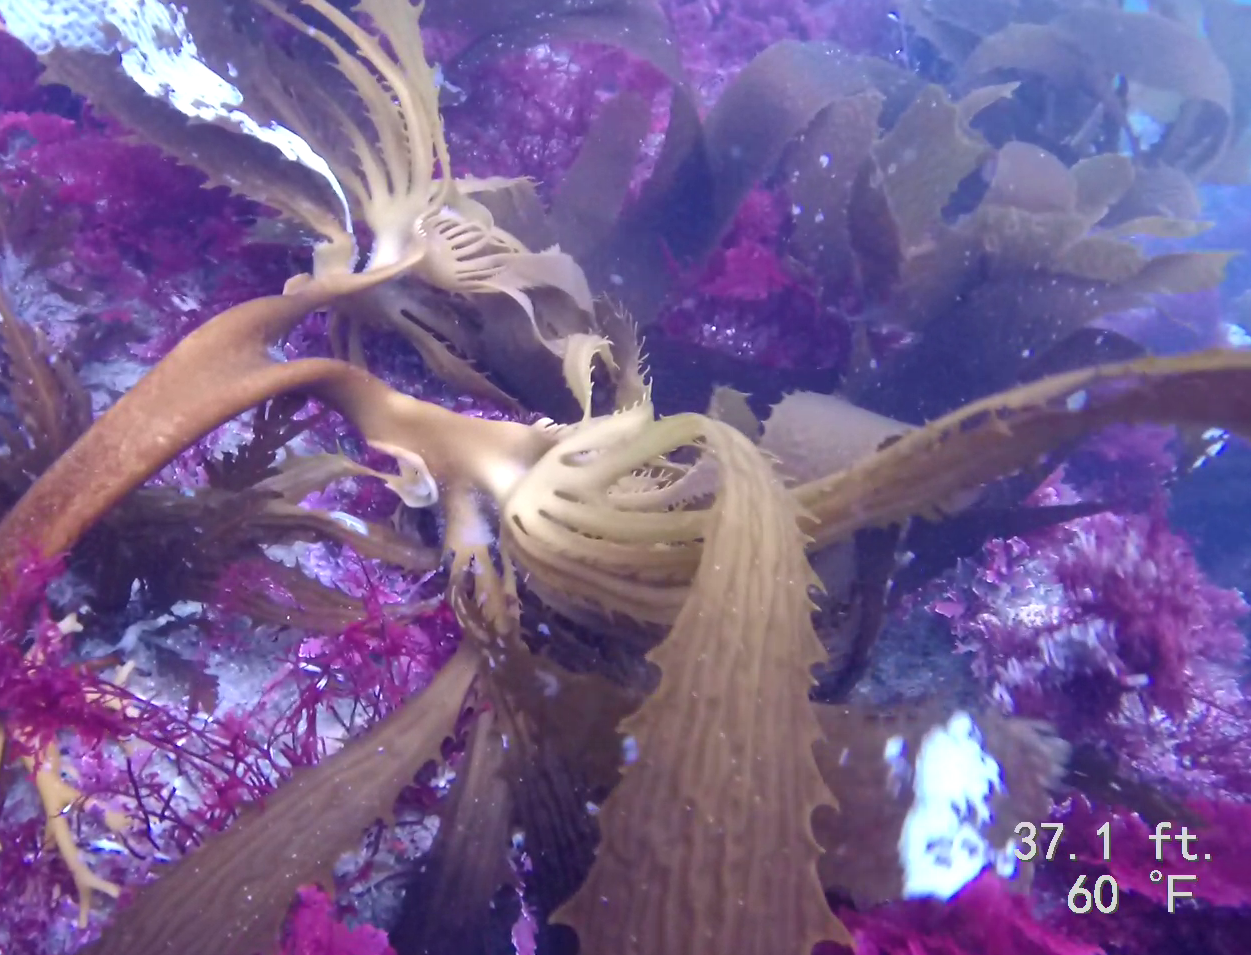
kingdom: Chromista
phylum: Ochrophyta
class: Phaeophyceae
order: Laminariales
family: Lessoniaceae
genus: Eisenia
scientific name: Eisenia arborea
